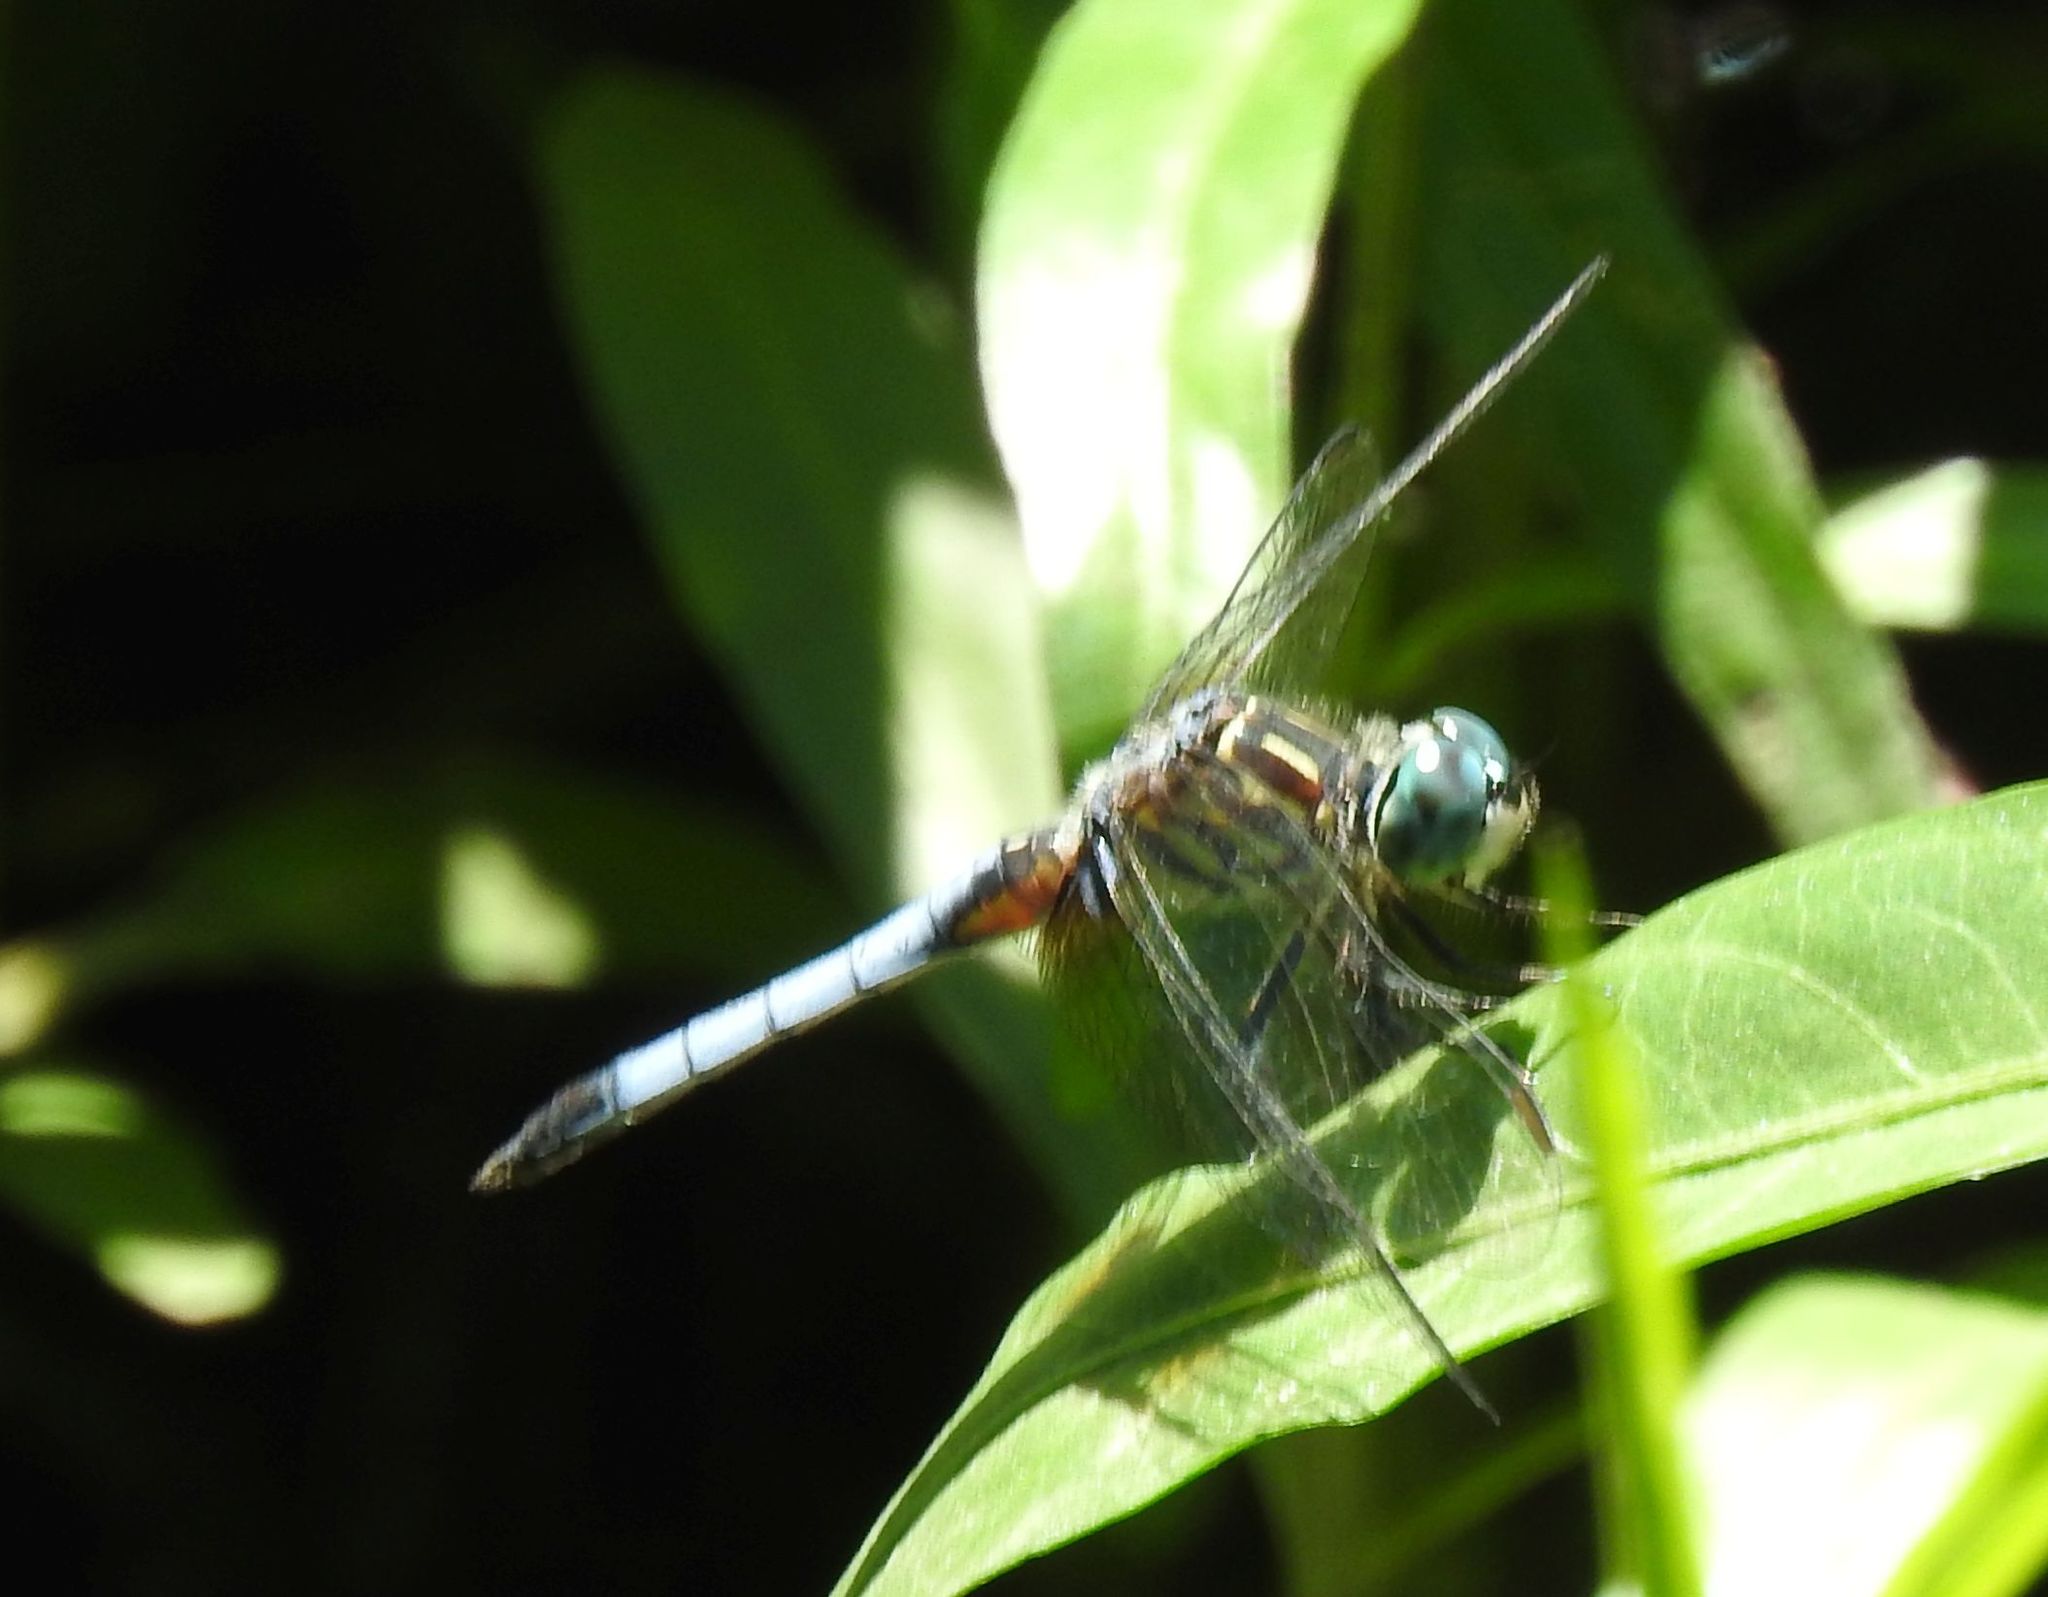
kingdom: Animalia
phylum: Arthropoda
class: Insecta
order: Odonata
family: Libellulidae
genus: Pachydiplax
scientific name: Pachydiplax longipennis
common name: Blue dasher
